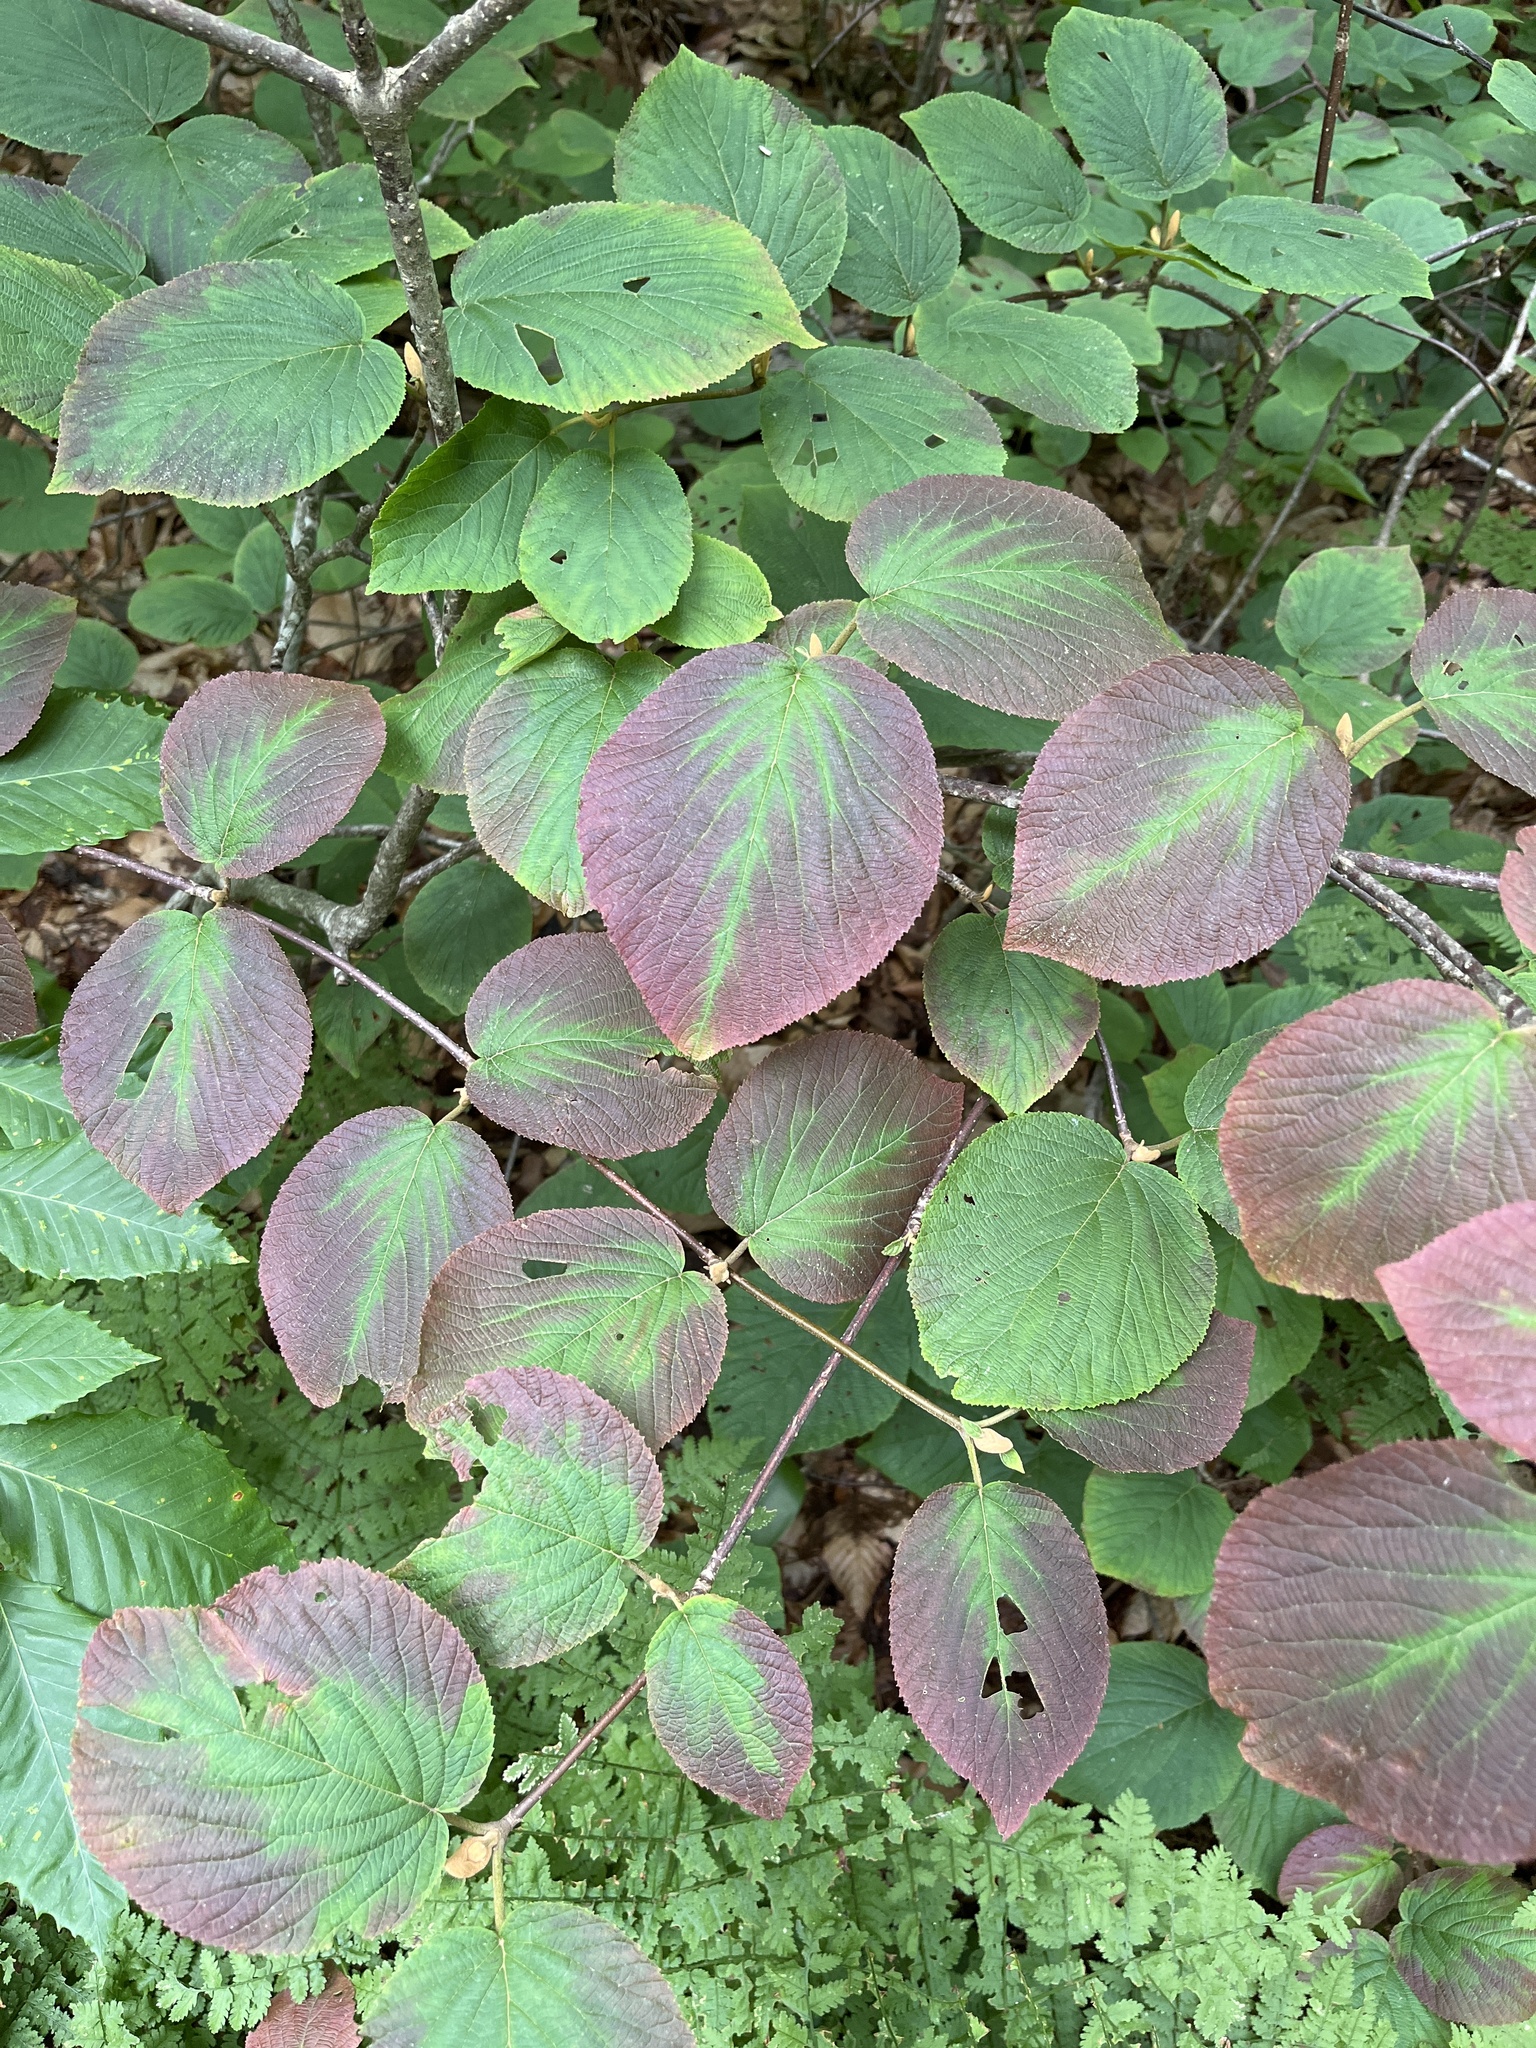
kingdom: Plantae
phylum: Tracheophyta
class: Magnoliopsida
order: Dipsacales
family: Viburnaceae
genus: Viburnum
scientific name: Viburnum lantanoides
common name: Hobblebush
